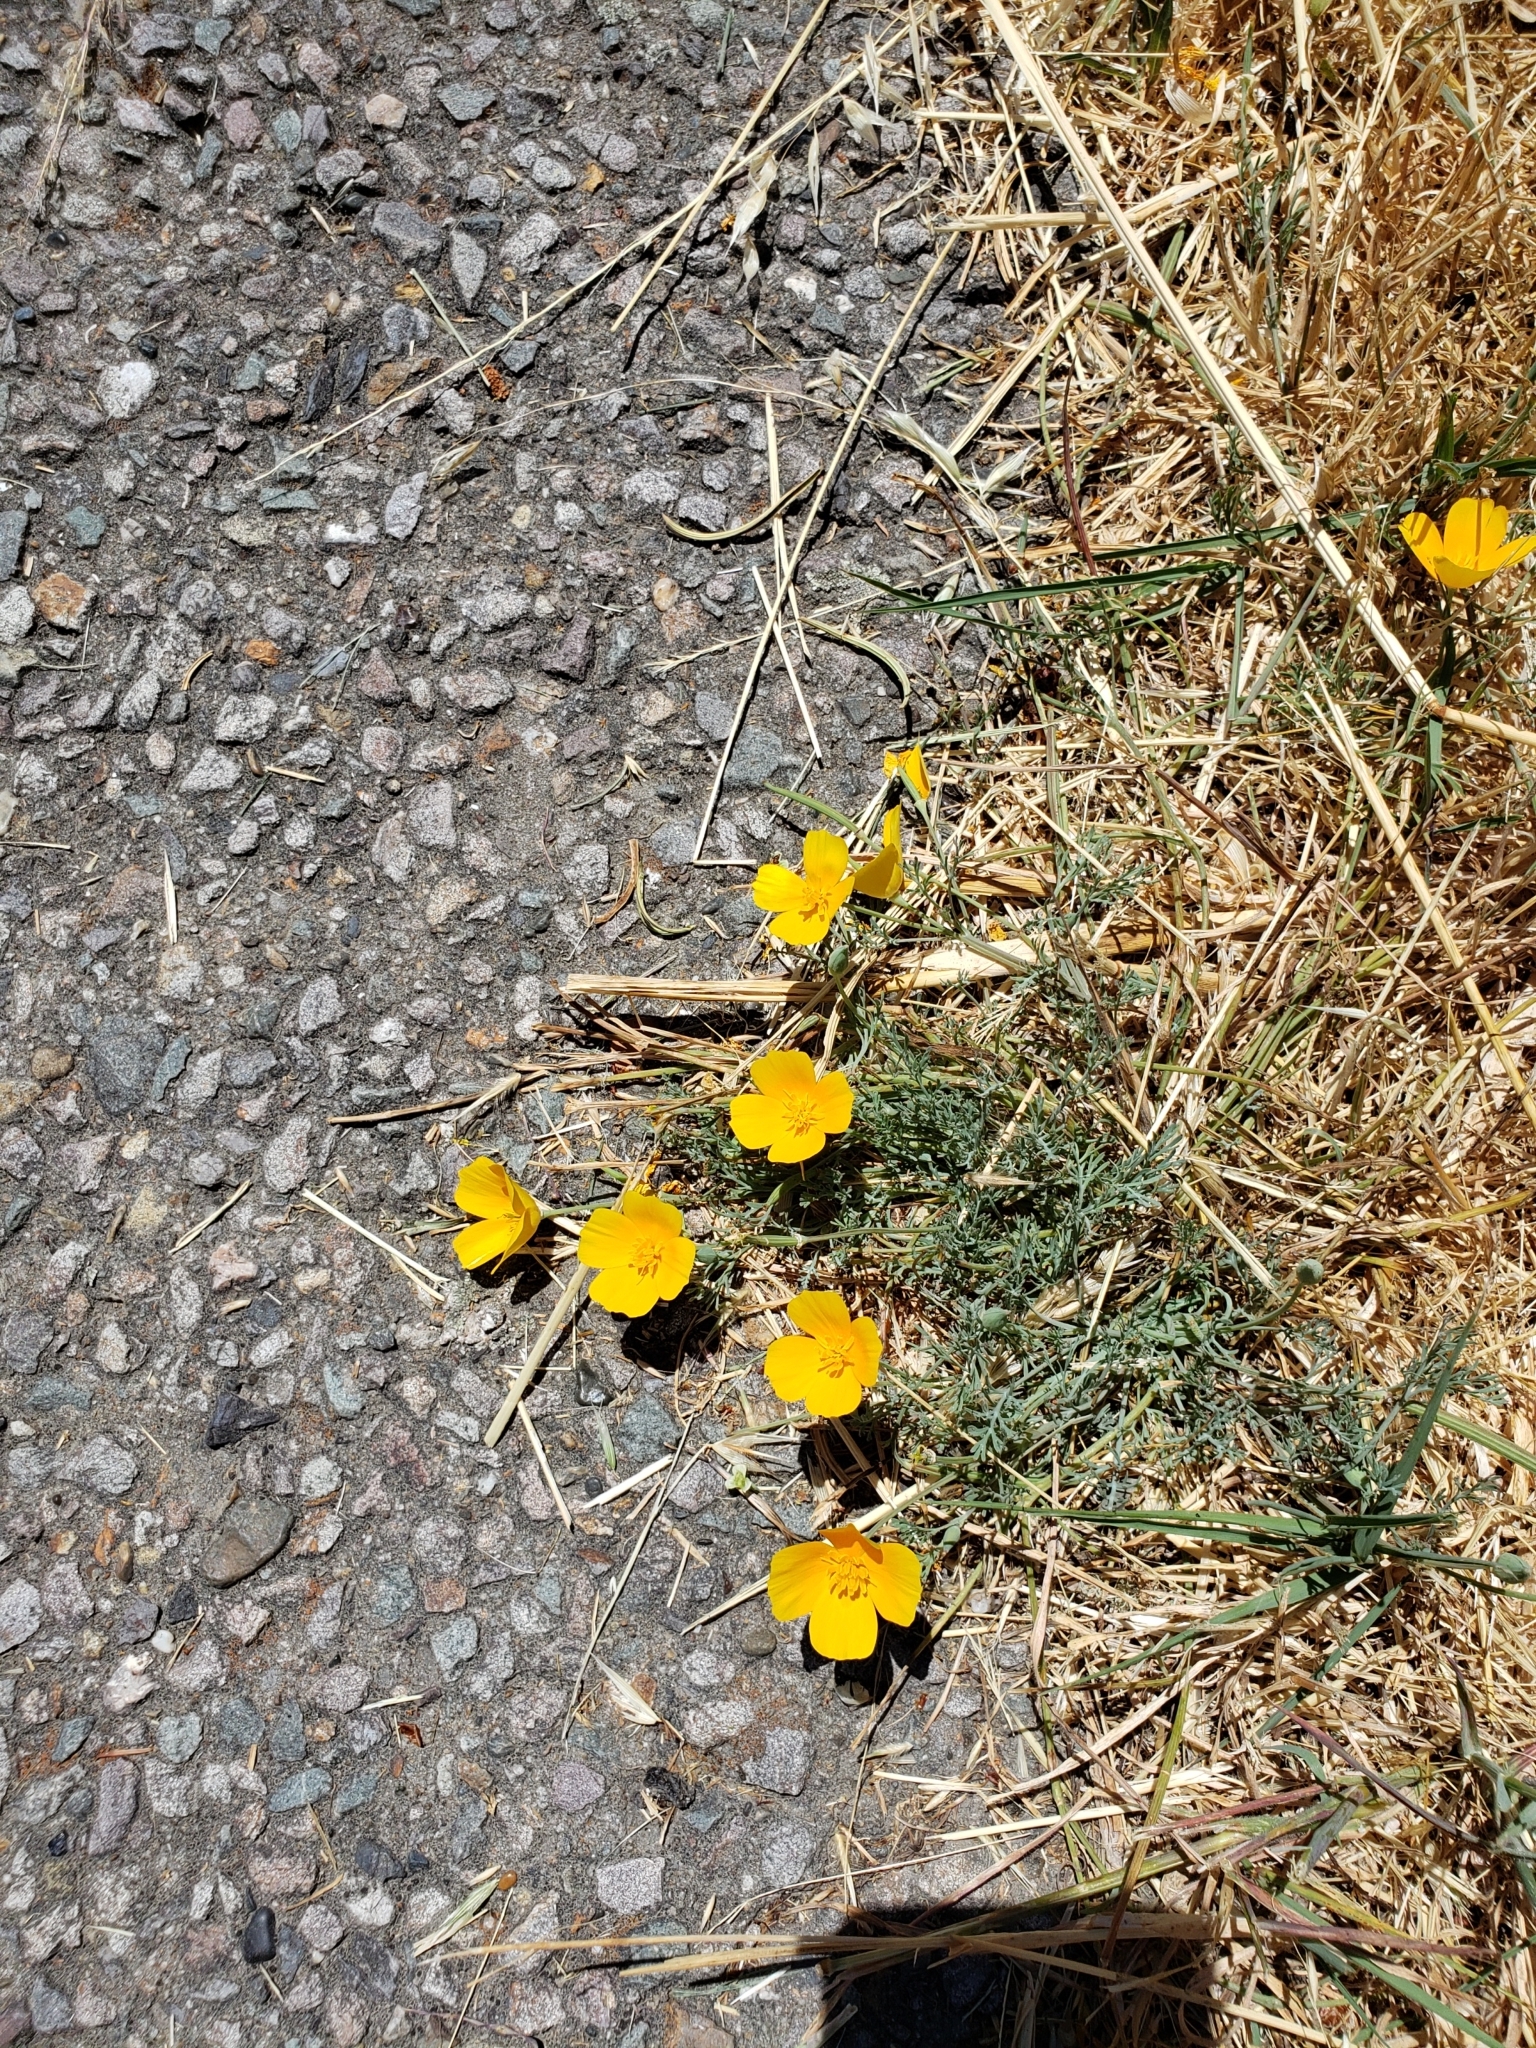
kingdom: Plantae
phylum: Tracheophyta
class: Magnoliopsida
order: Ranunculales
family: Papaveraceae
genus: Eschscholzia
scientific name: Eschscholzia californica
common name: California poppy
